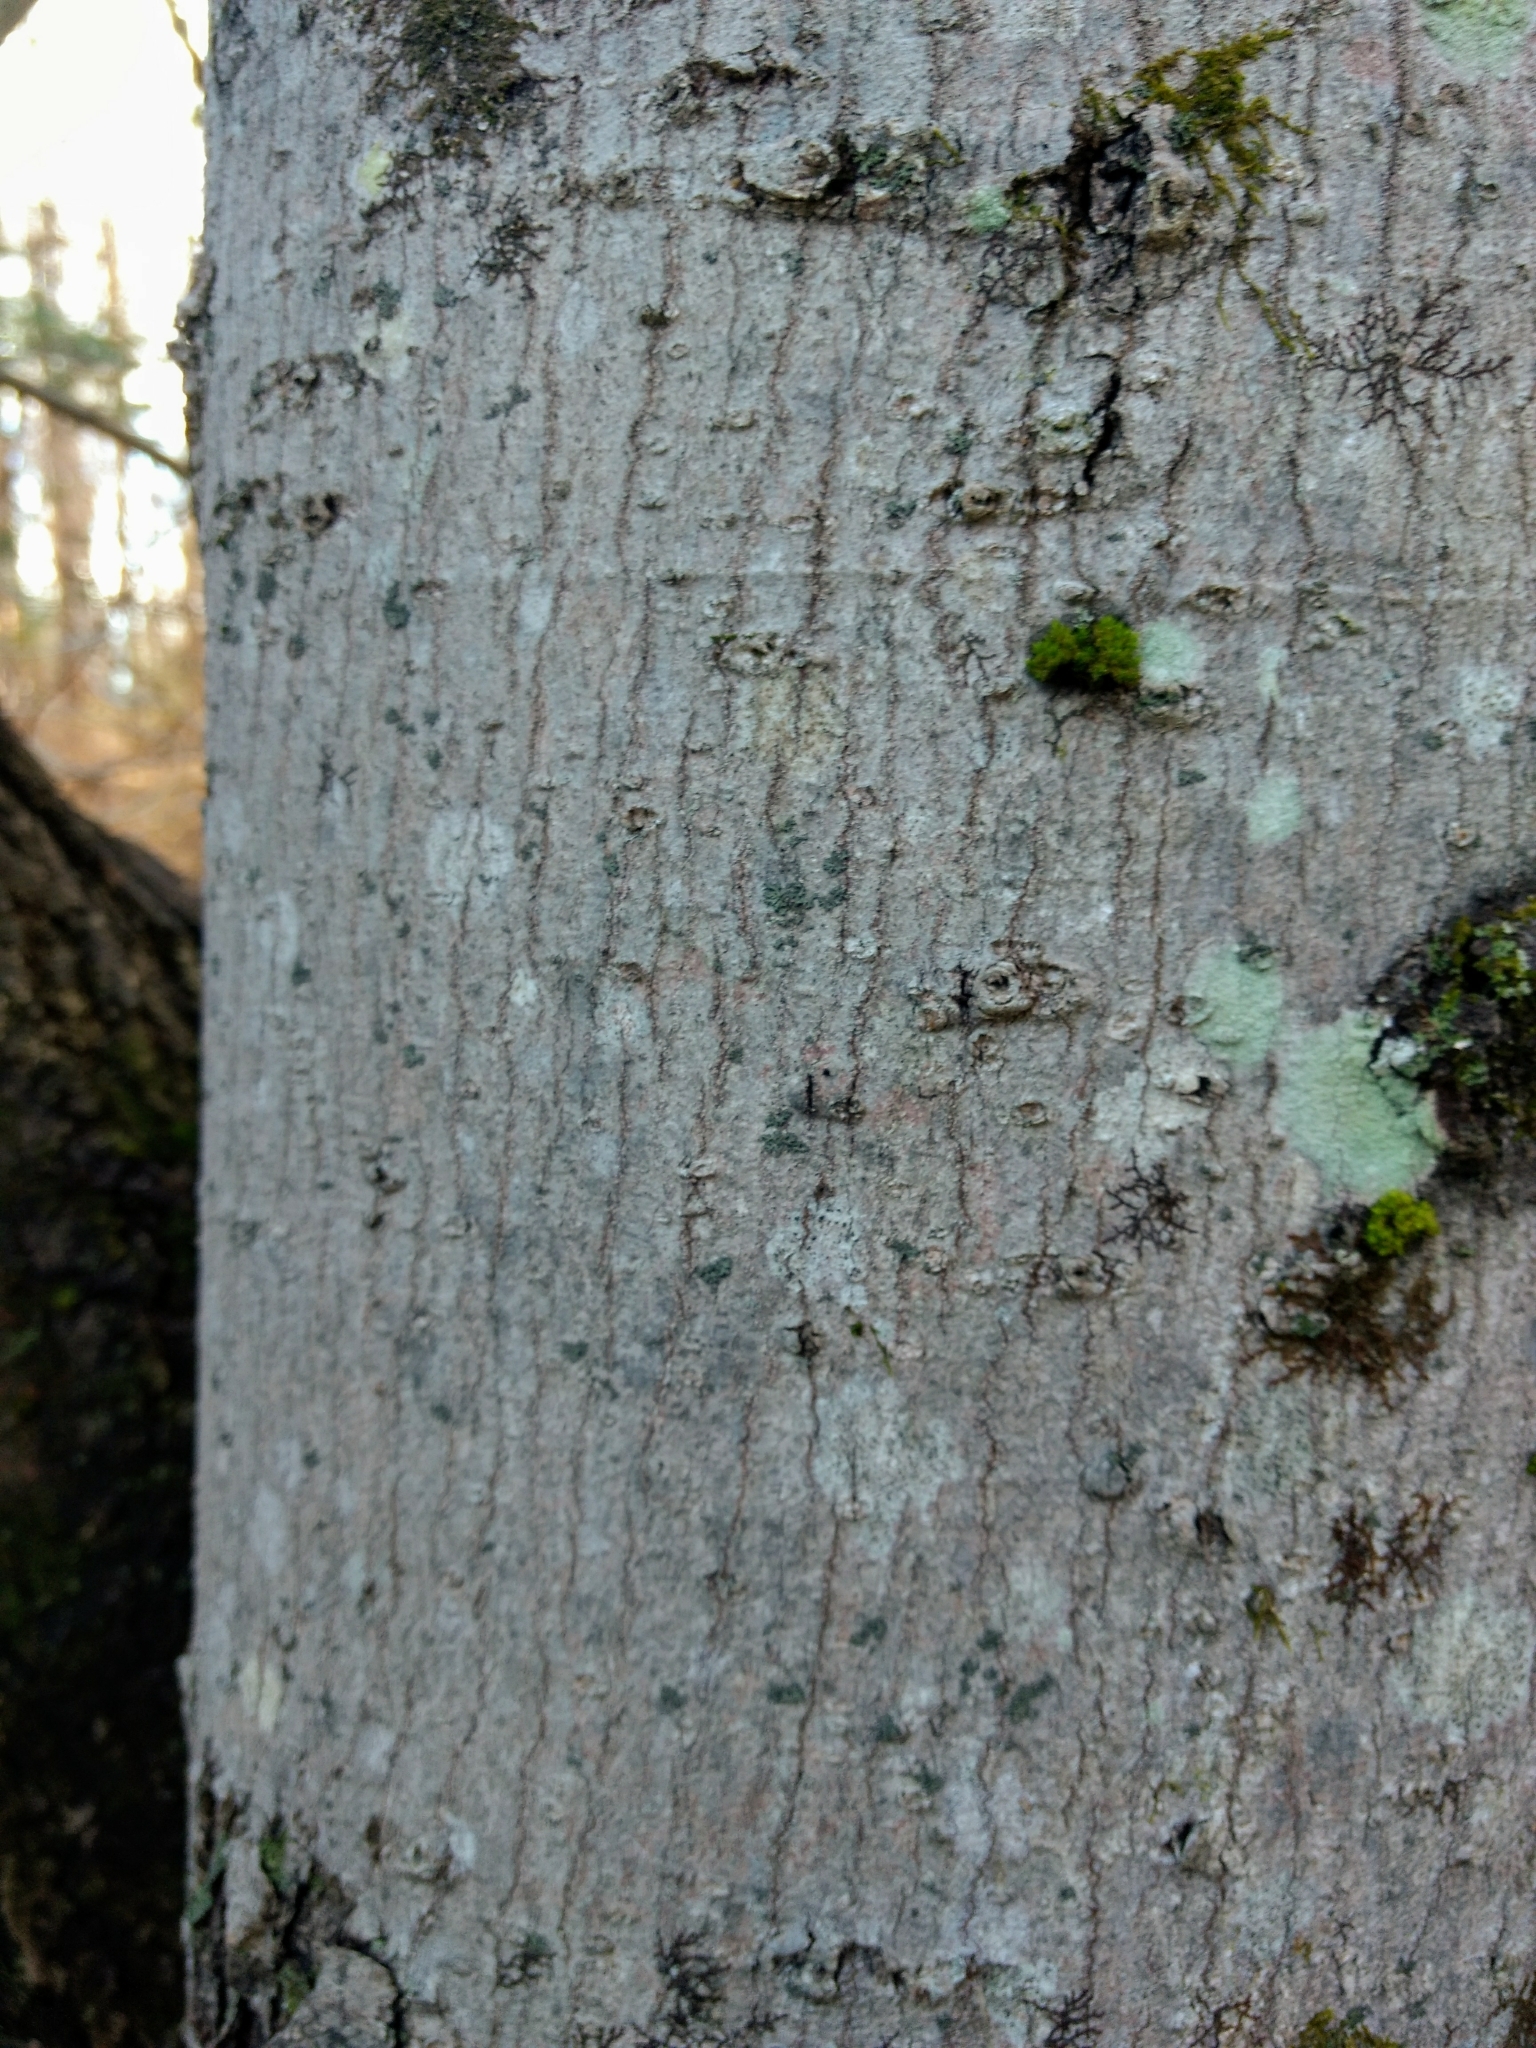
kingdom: Plantae
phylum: Tracheophyta
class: Magnoliopsida
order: Sapindales
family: Sapindaceae
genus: Acer
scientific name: Acer rubrum
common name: Red maple
